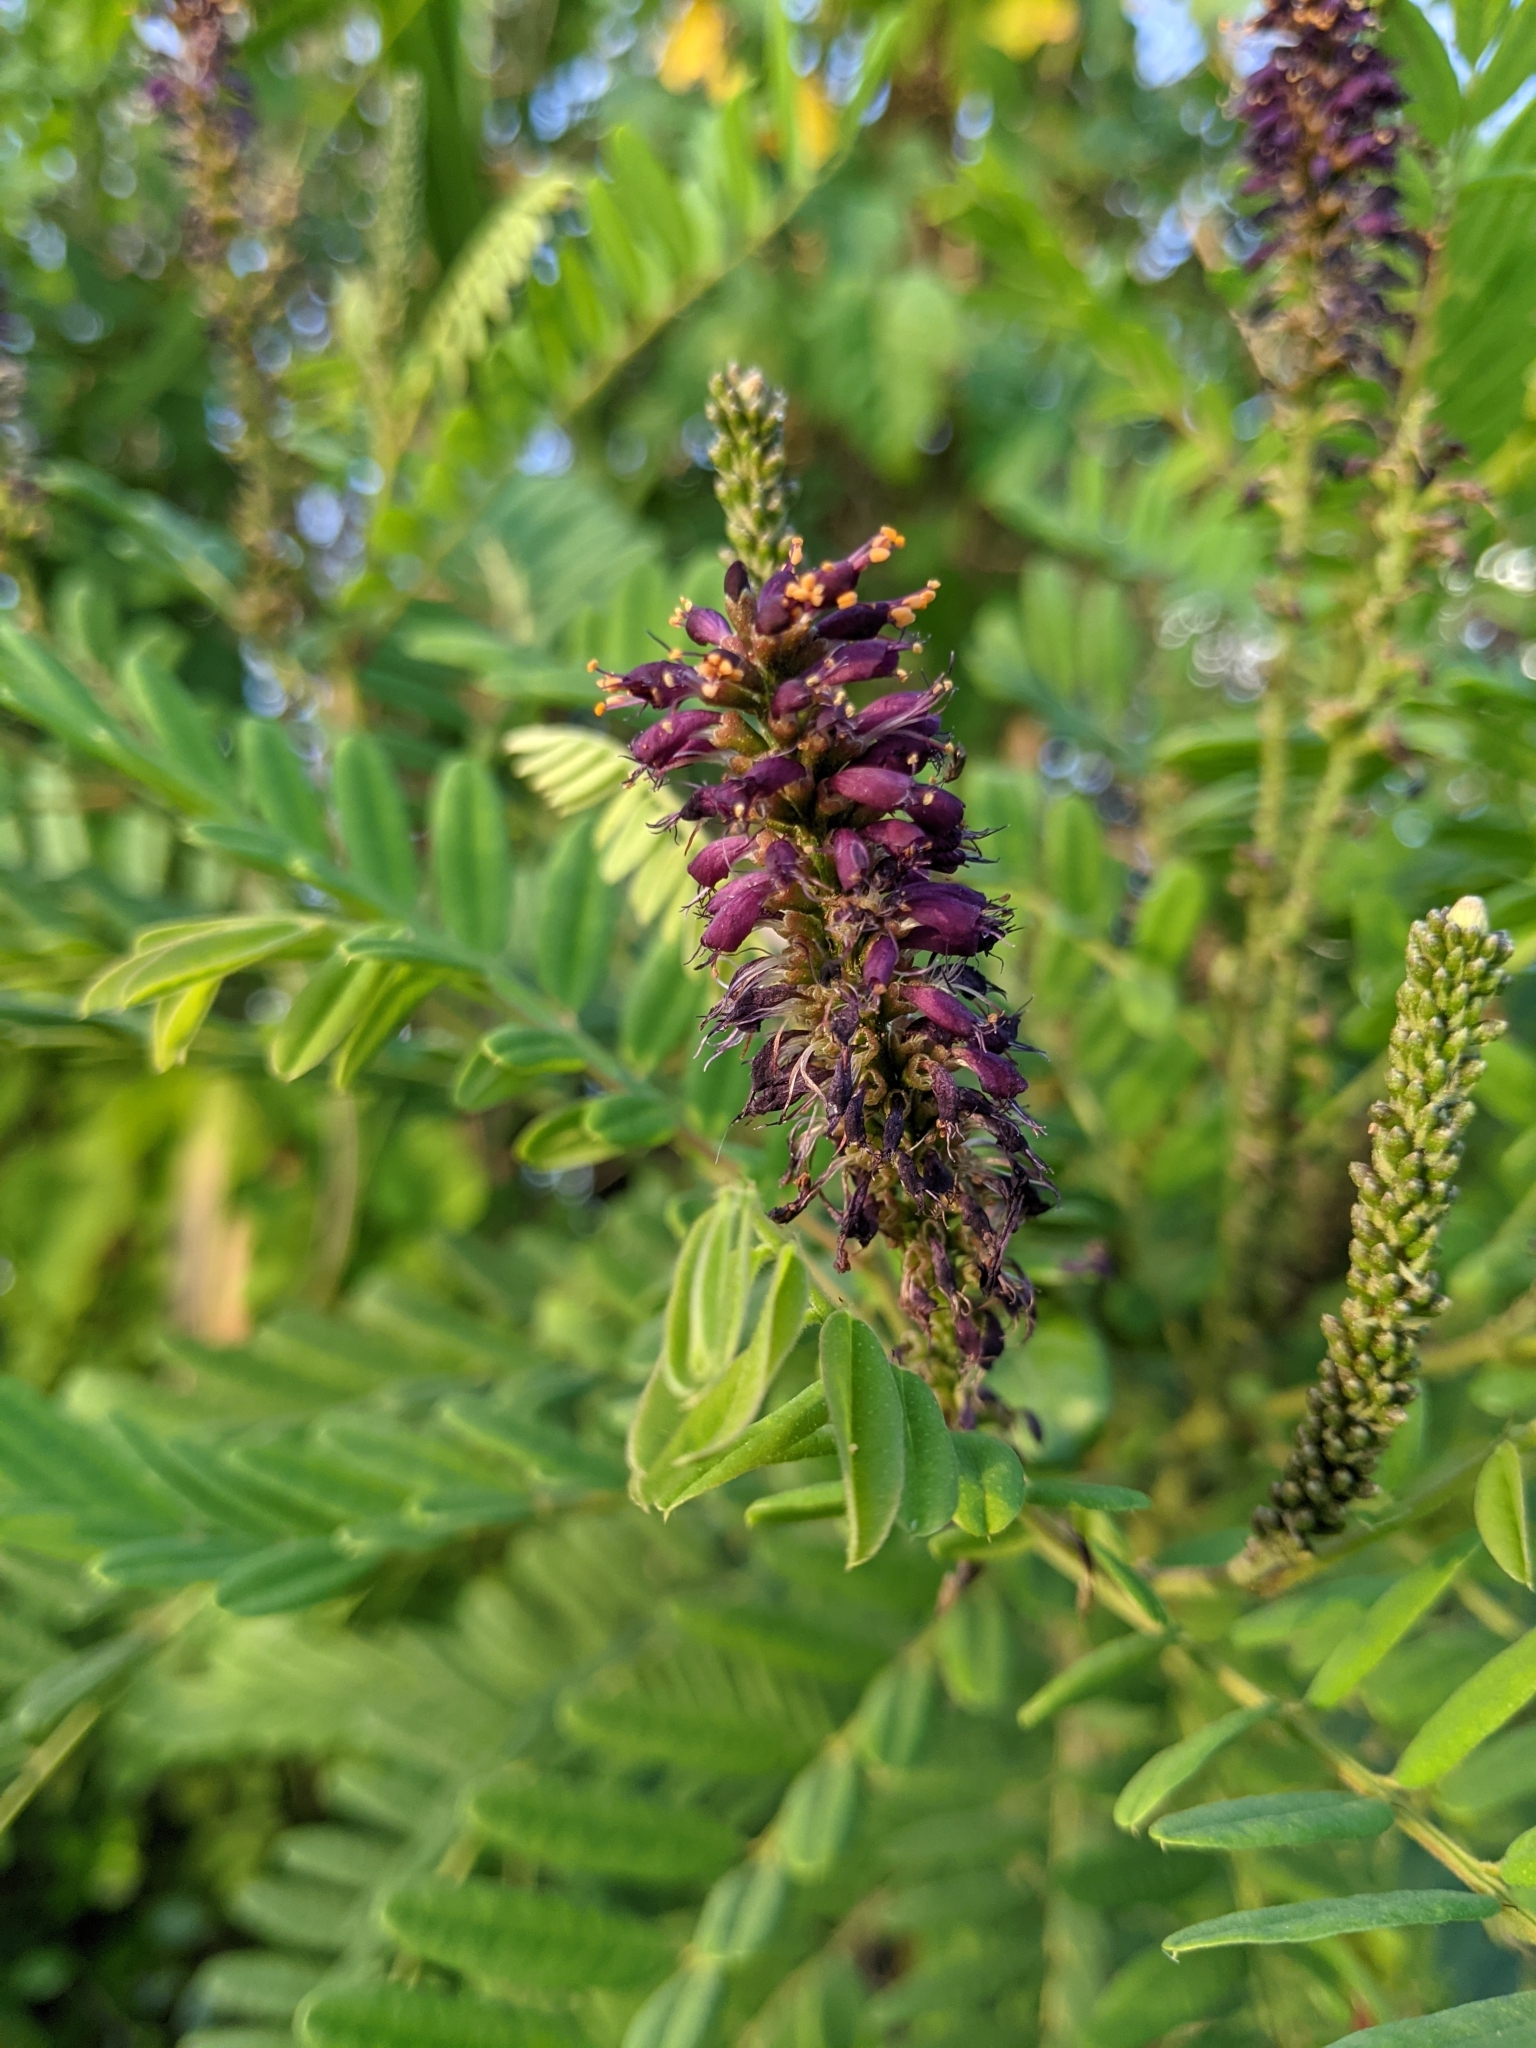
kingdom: Plantae
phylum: Tracheophyta
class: Magnoliopsida
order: Fabales
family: Fabaceae
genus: Amorpha
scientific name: Amorpha fruticosa
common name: False indigo
